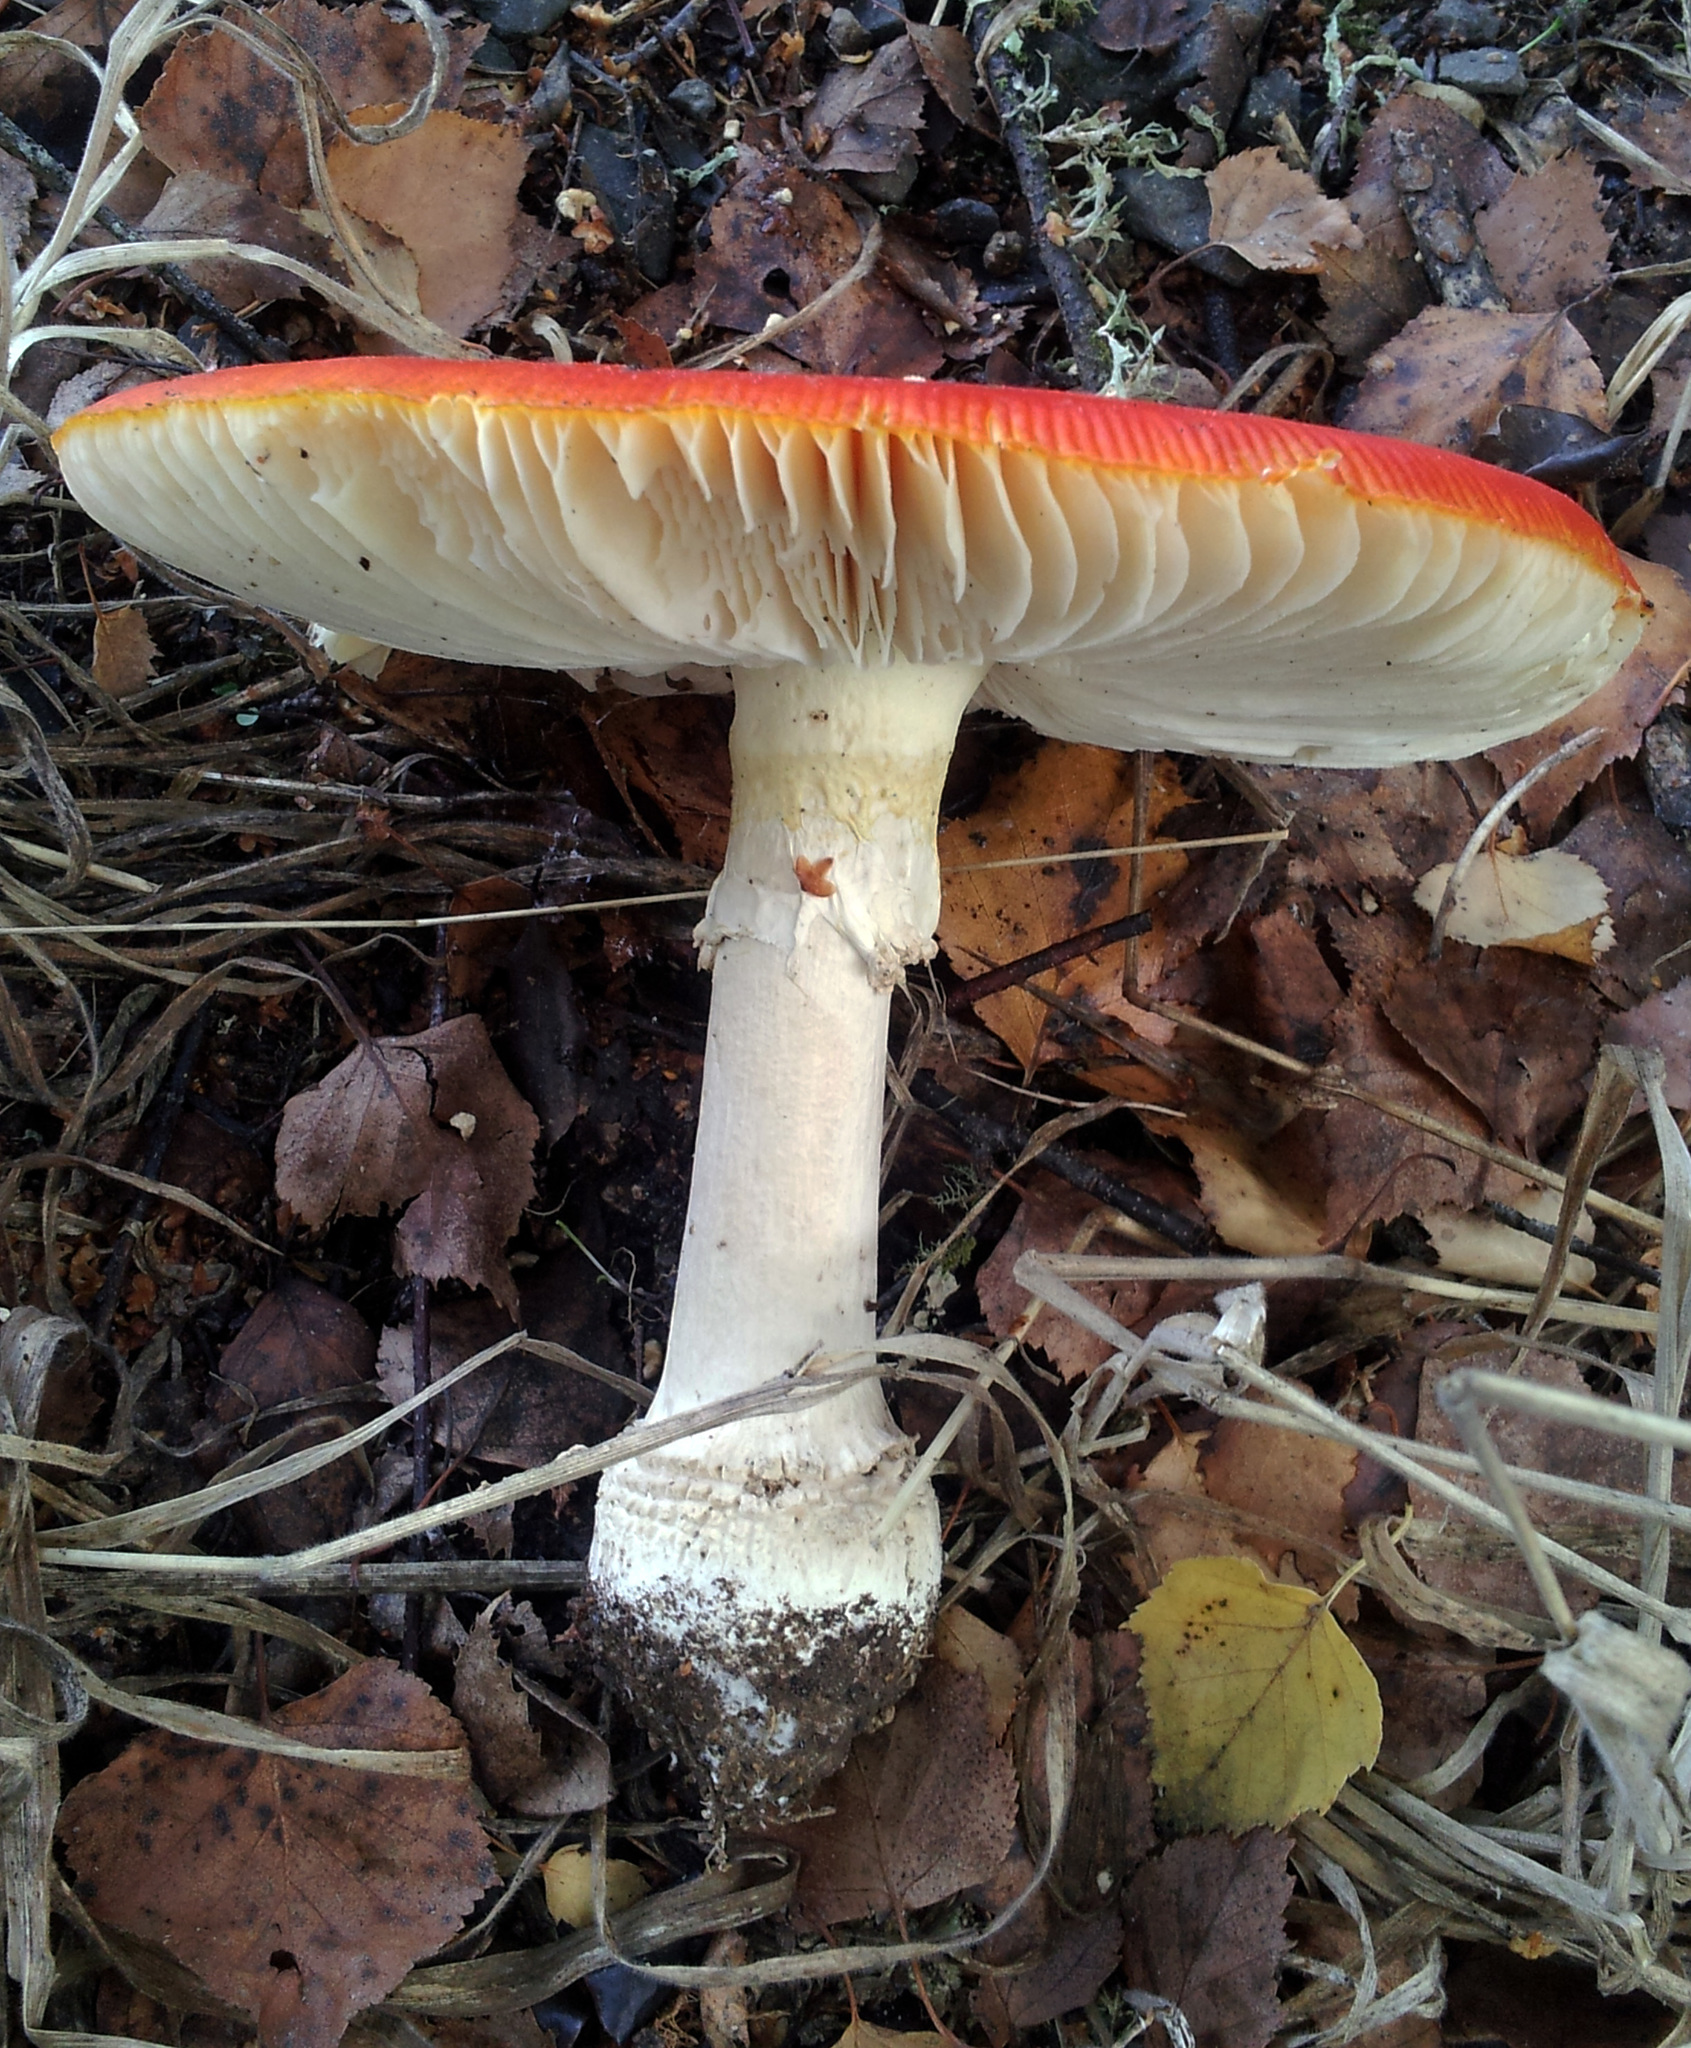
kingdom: Fungi
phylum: Basidiomycota
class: Agaricomycetes
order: Agaricales
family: Amanitaceae
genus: Amanita
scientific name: Amanita muscaria
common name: Fly agaric
